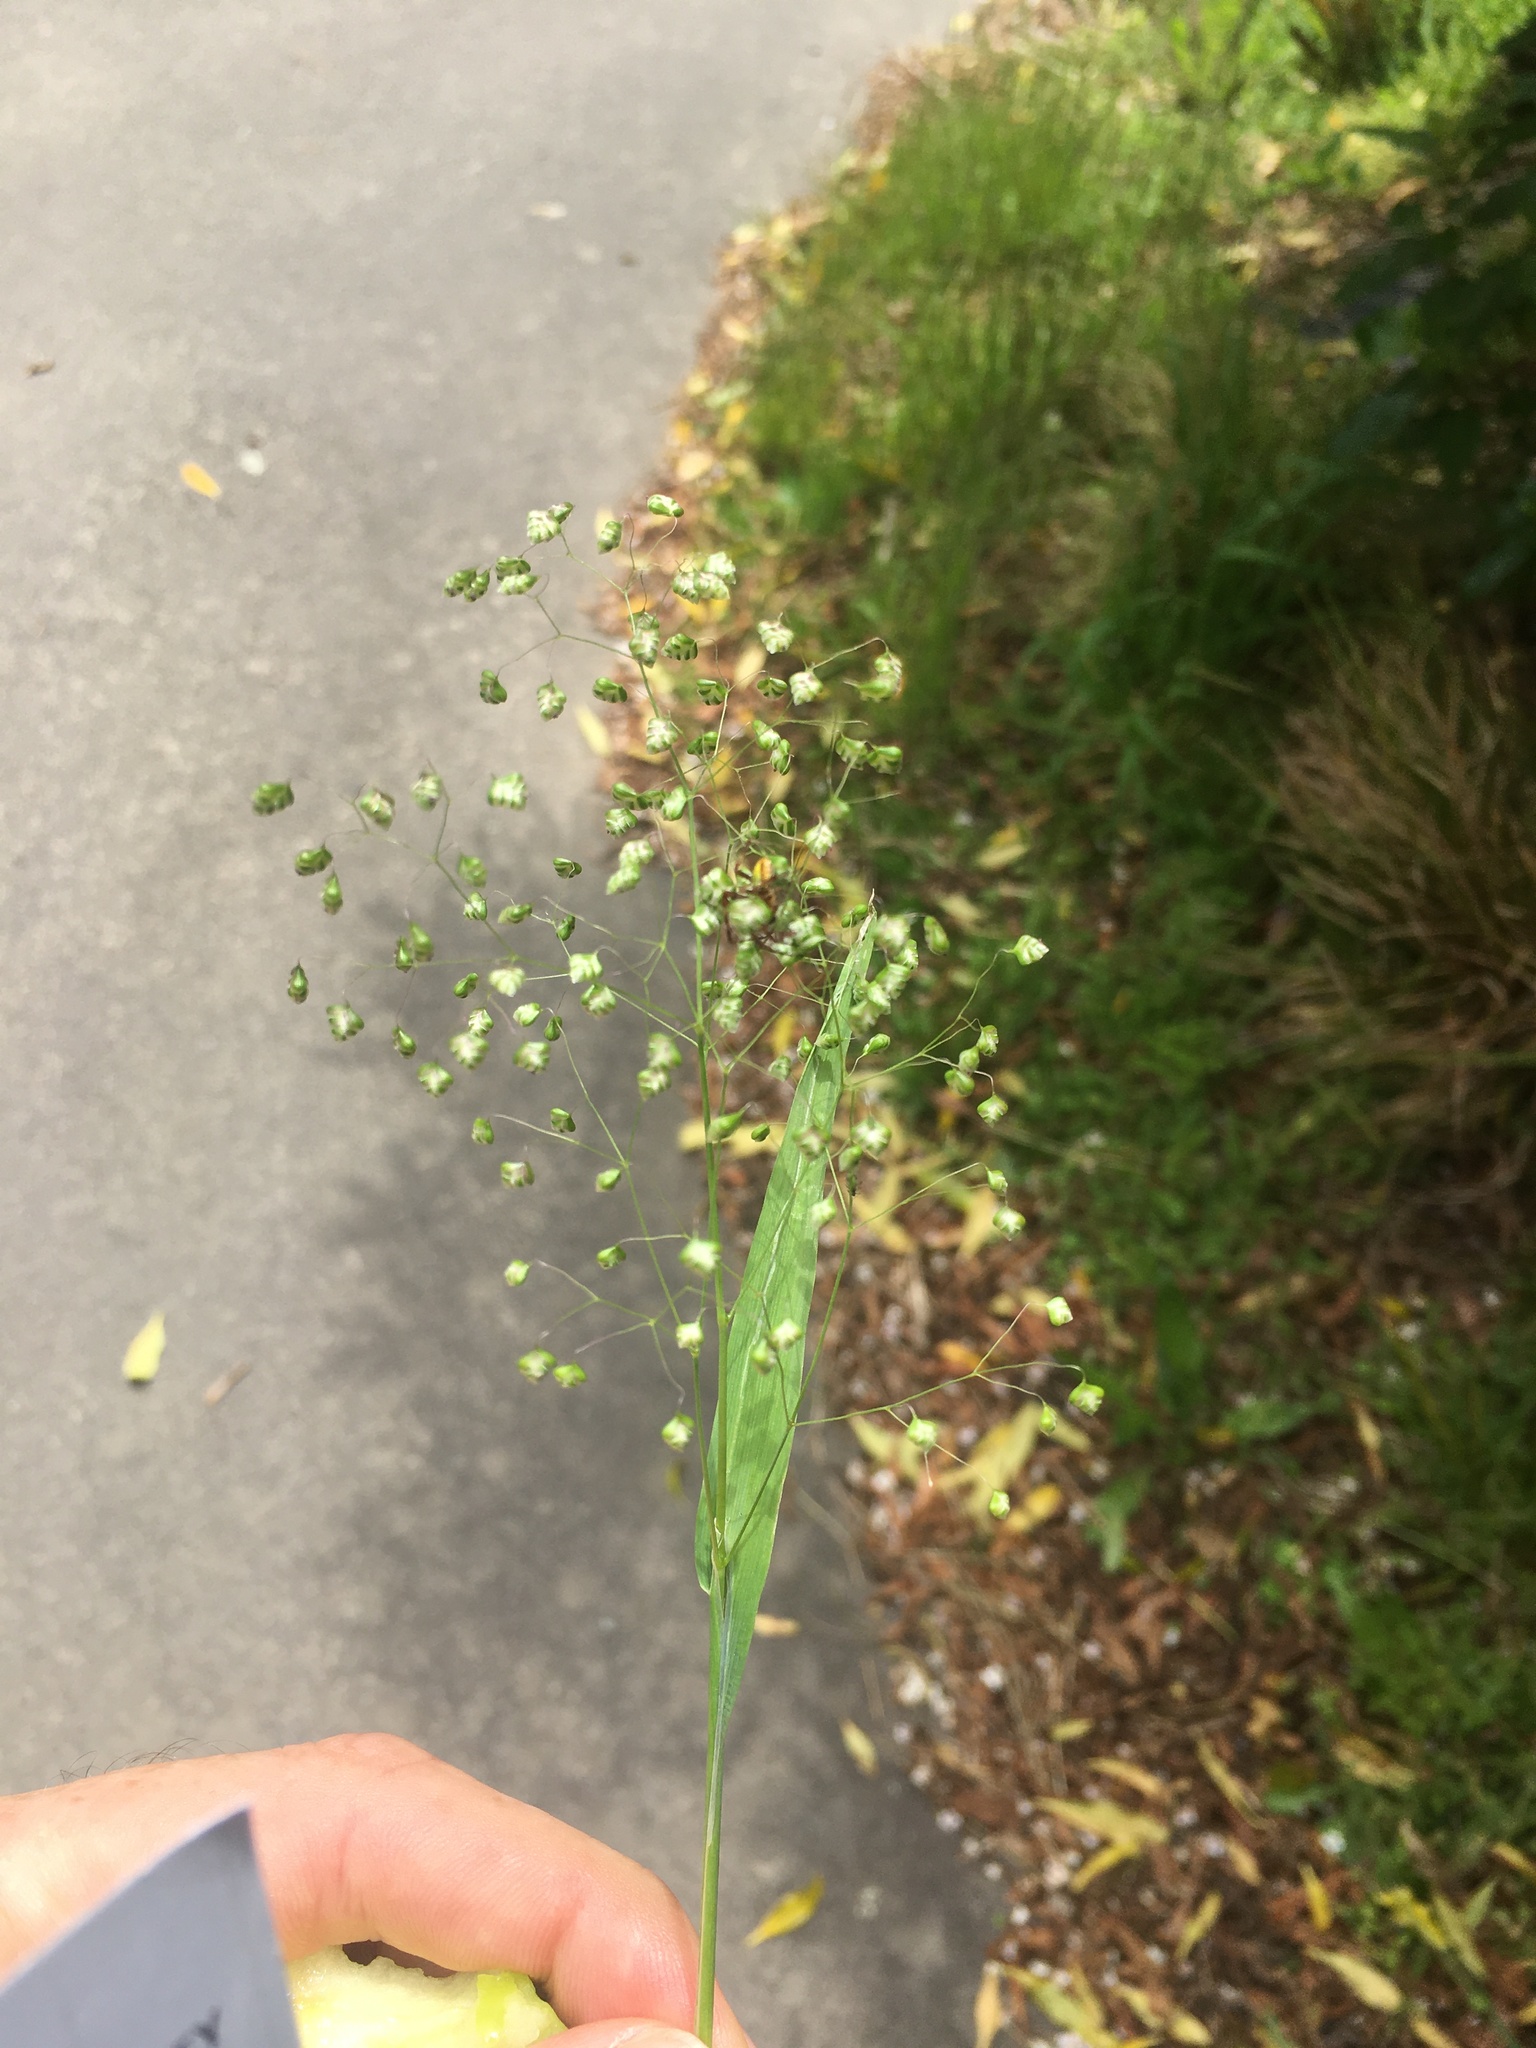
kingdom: Plantae
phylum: Tracheophyta
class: Liliopsida
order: Poales
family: Poaceae
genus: Briza
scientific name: Briza minor
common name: Lesser quaking-grass
